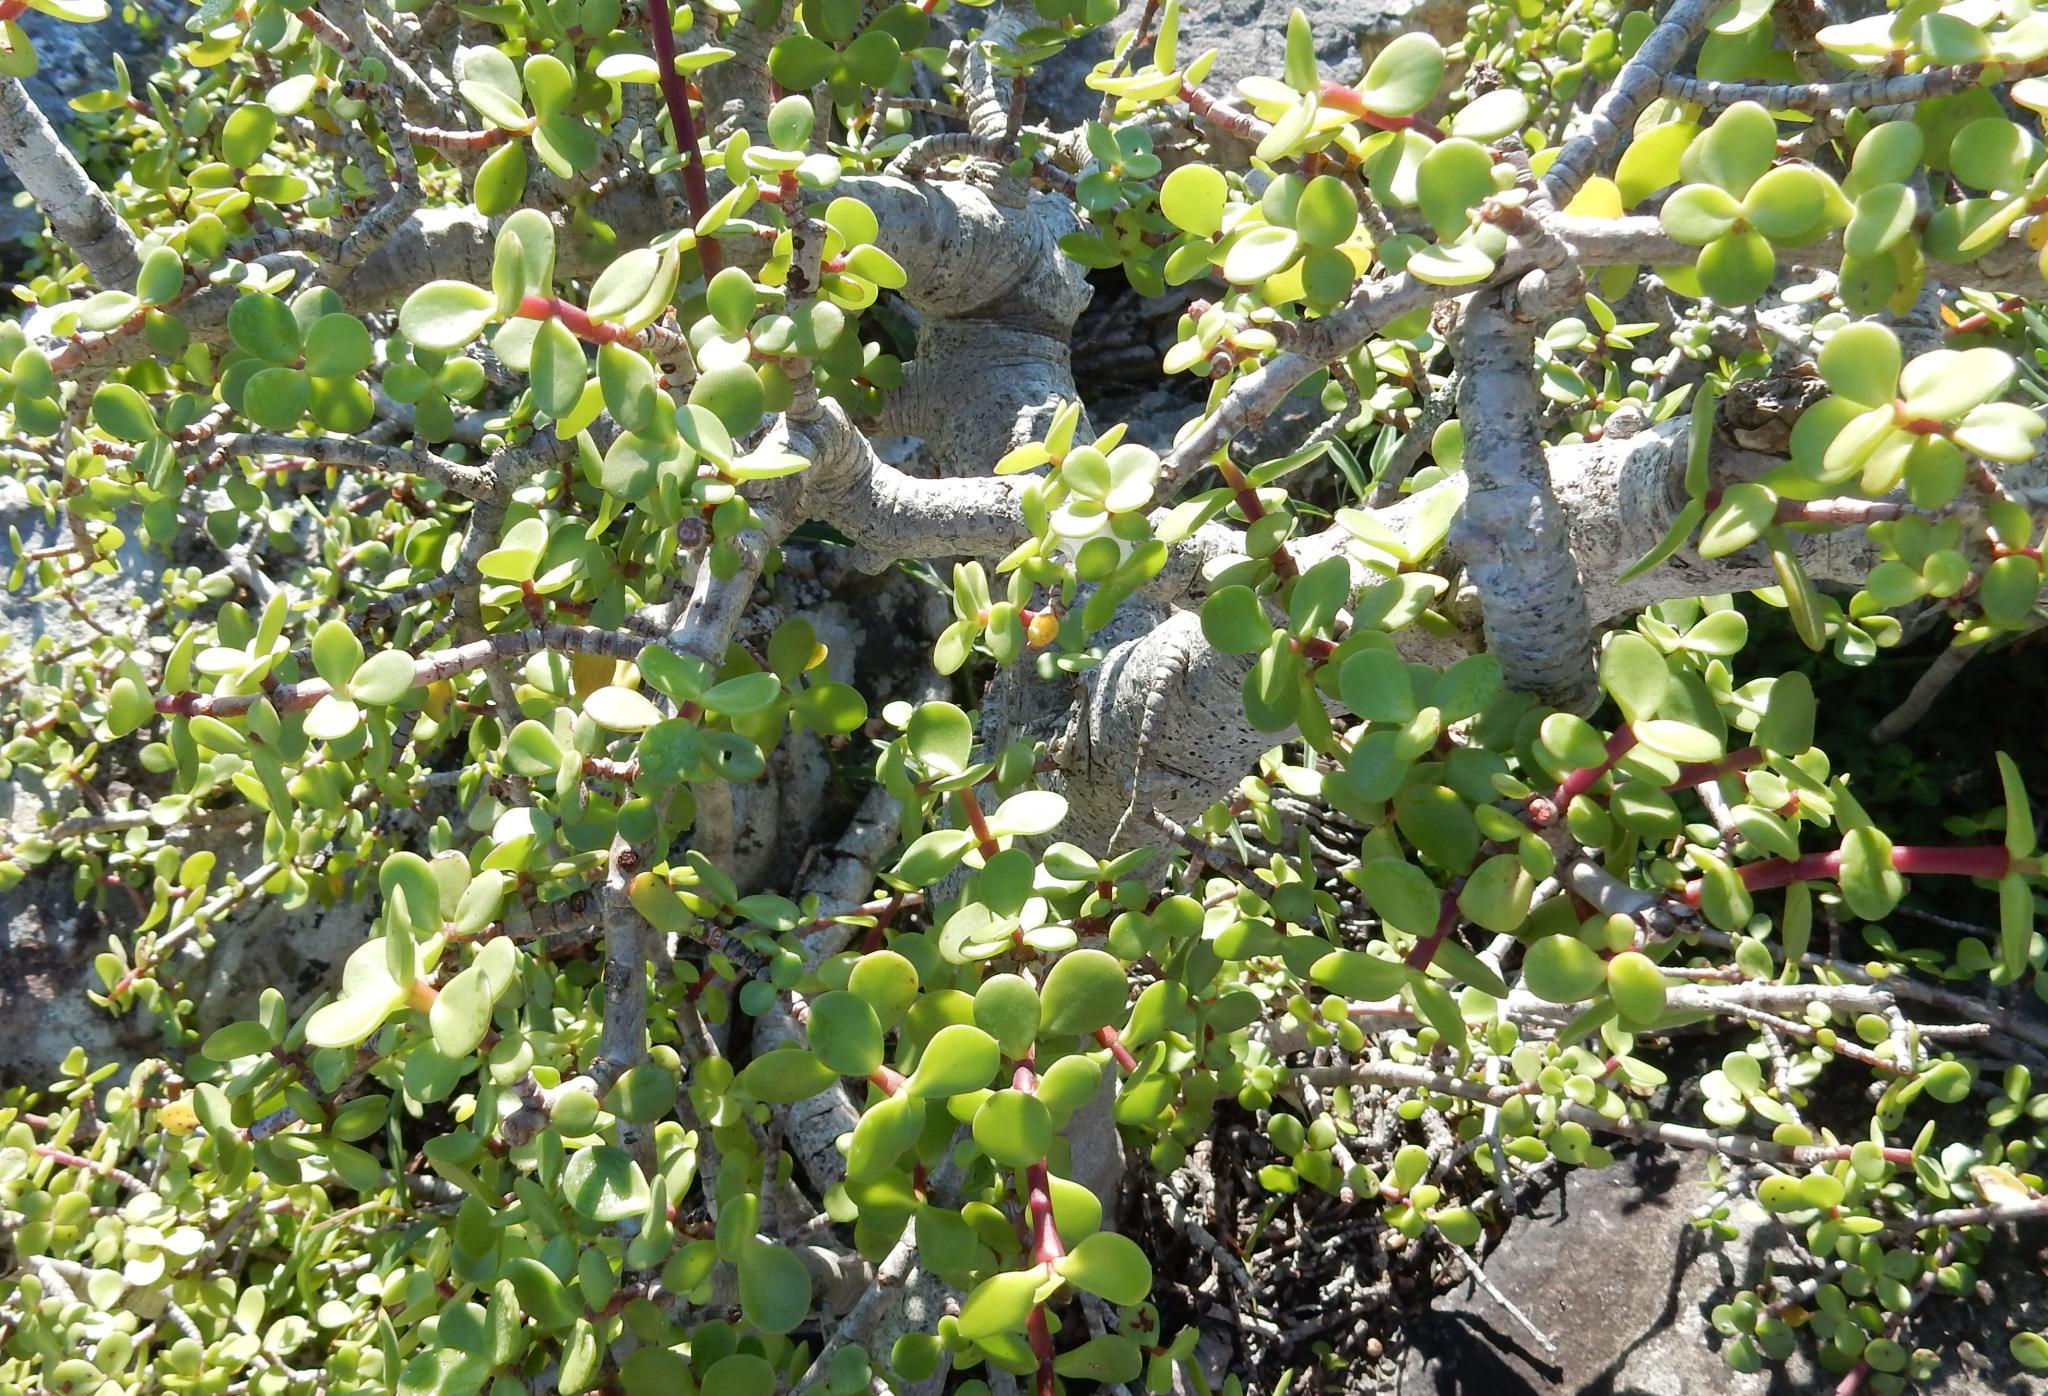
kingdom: Plantae
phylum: Tracheophyta
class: Magnoliopsida
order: Caryophyllales
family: Didiereaceae
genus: Portulacaria
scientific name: Portulacaria afra
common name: Elephant-bush
